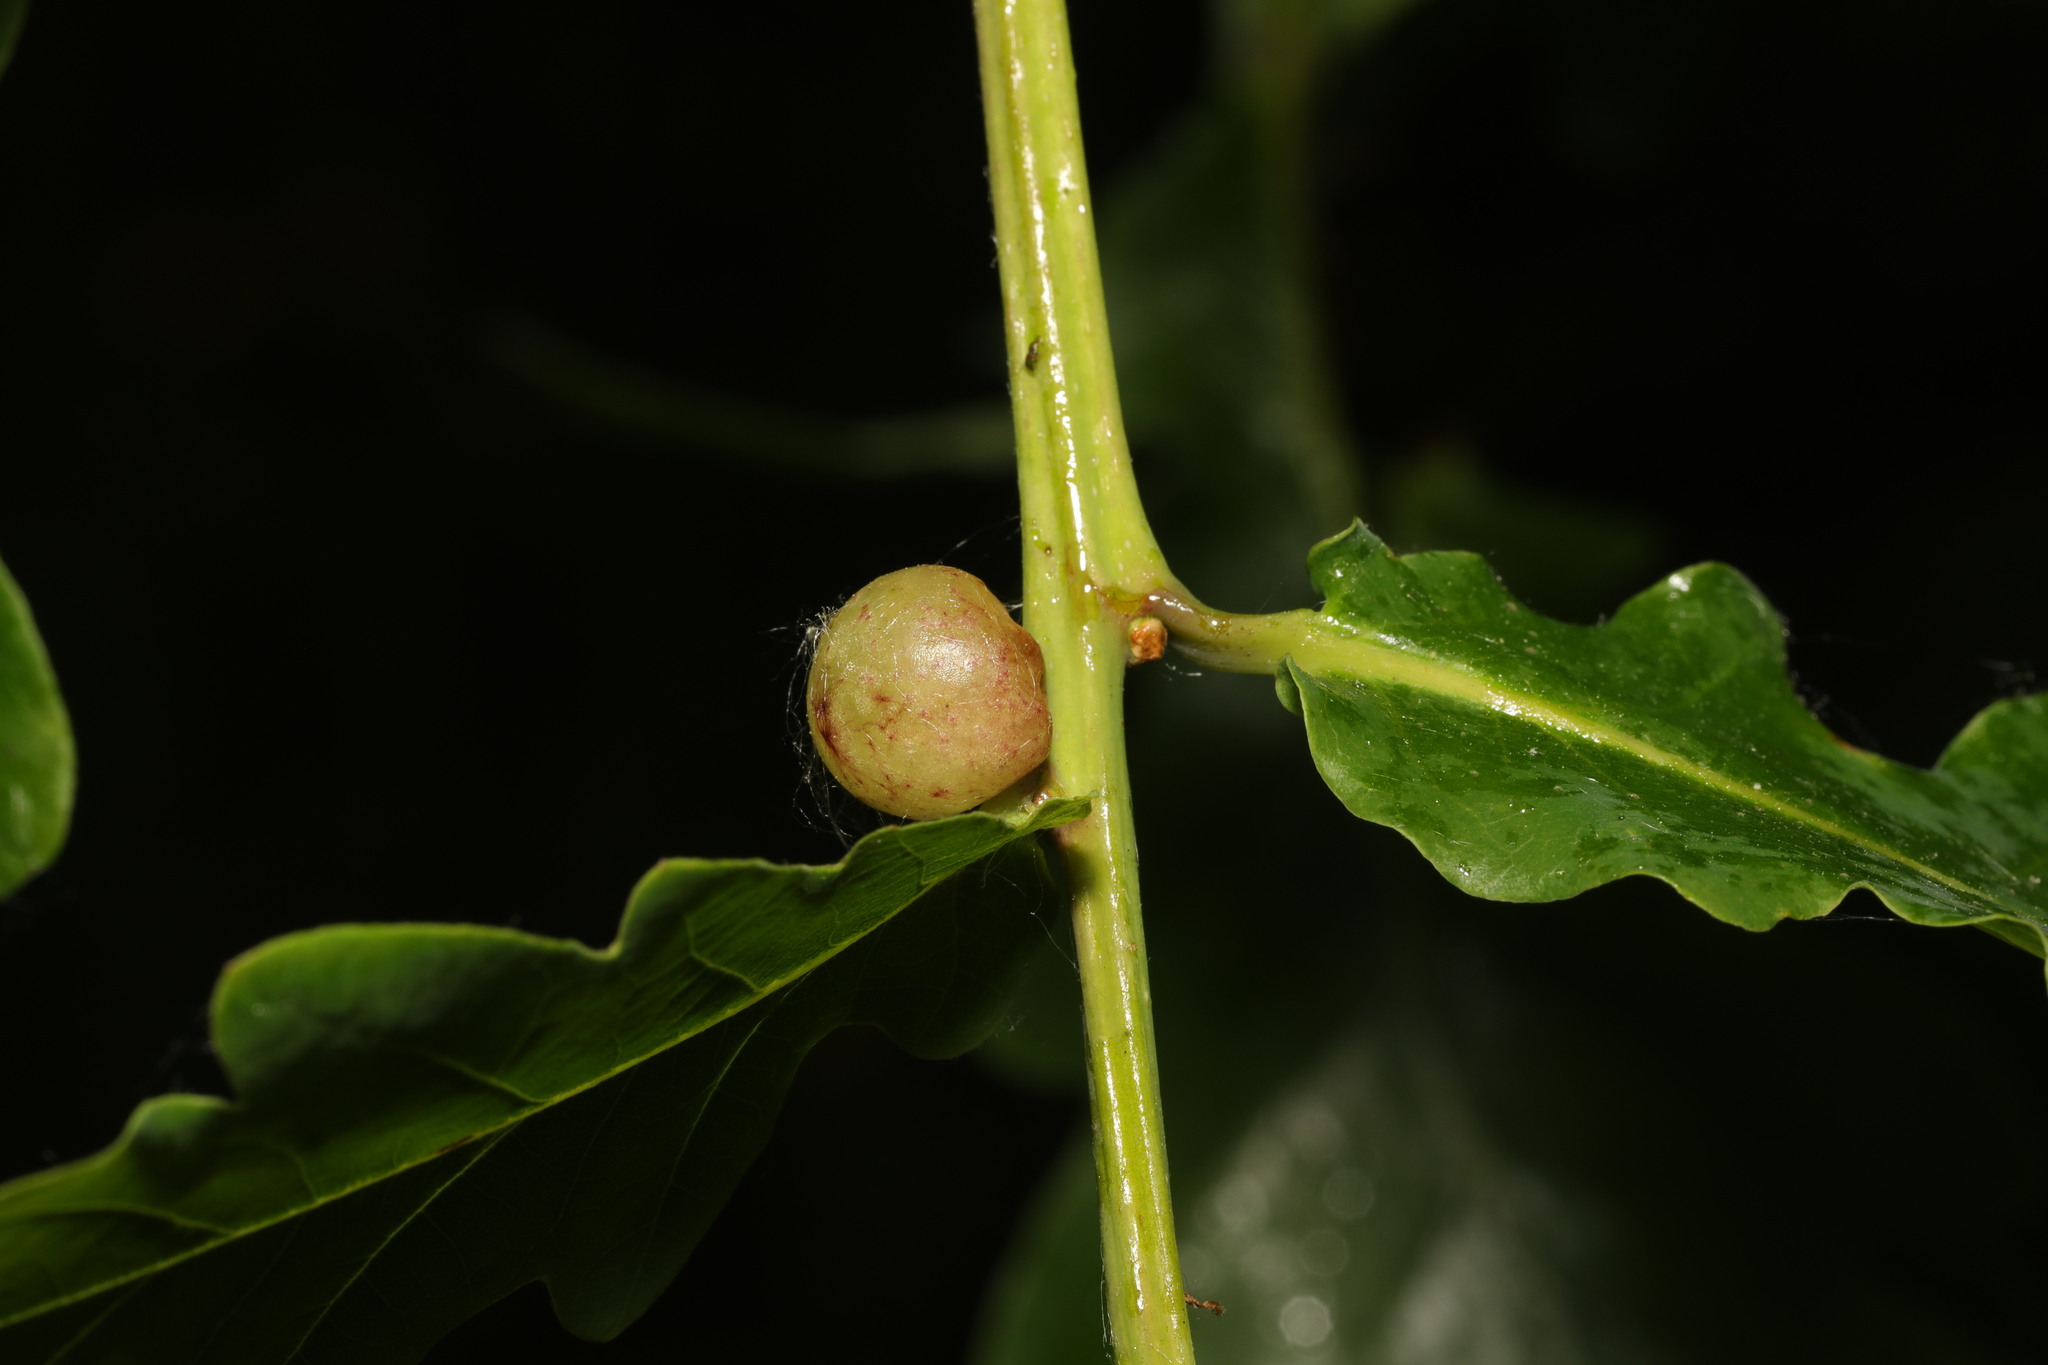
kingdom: Animalia
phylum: Arthropoda
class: Insecta
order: Hymenoptera
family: Cynipidae
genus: Neuroterus
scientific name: Neuroterus quercusbaccarum
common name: Common spangle gall
